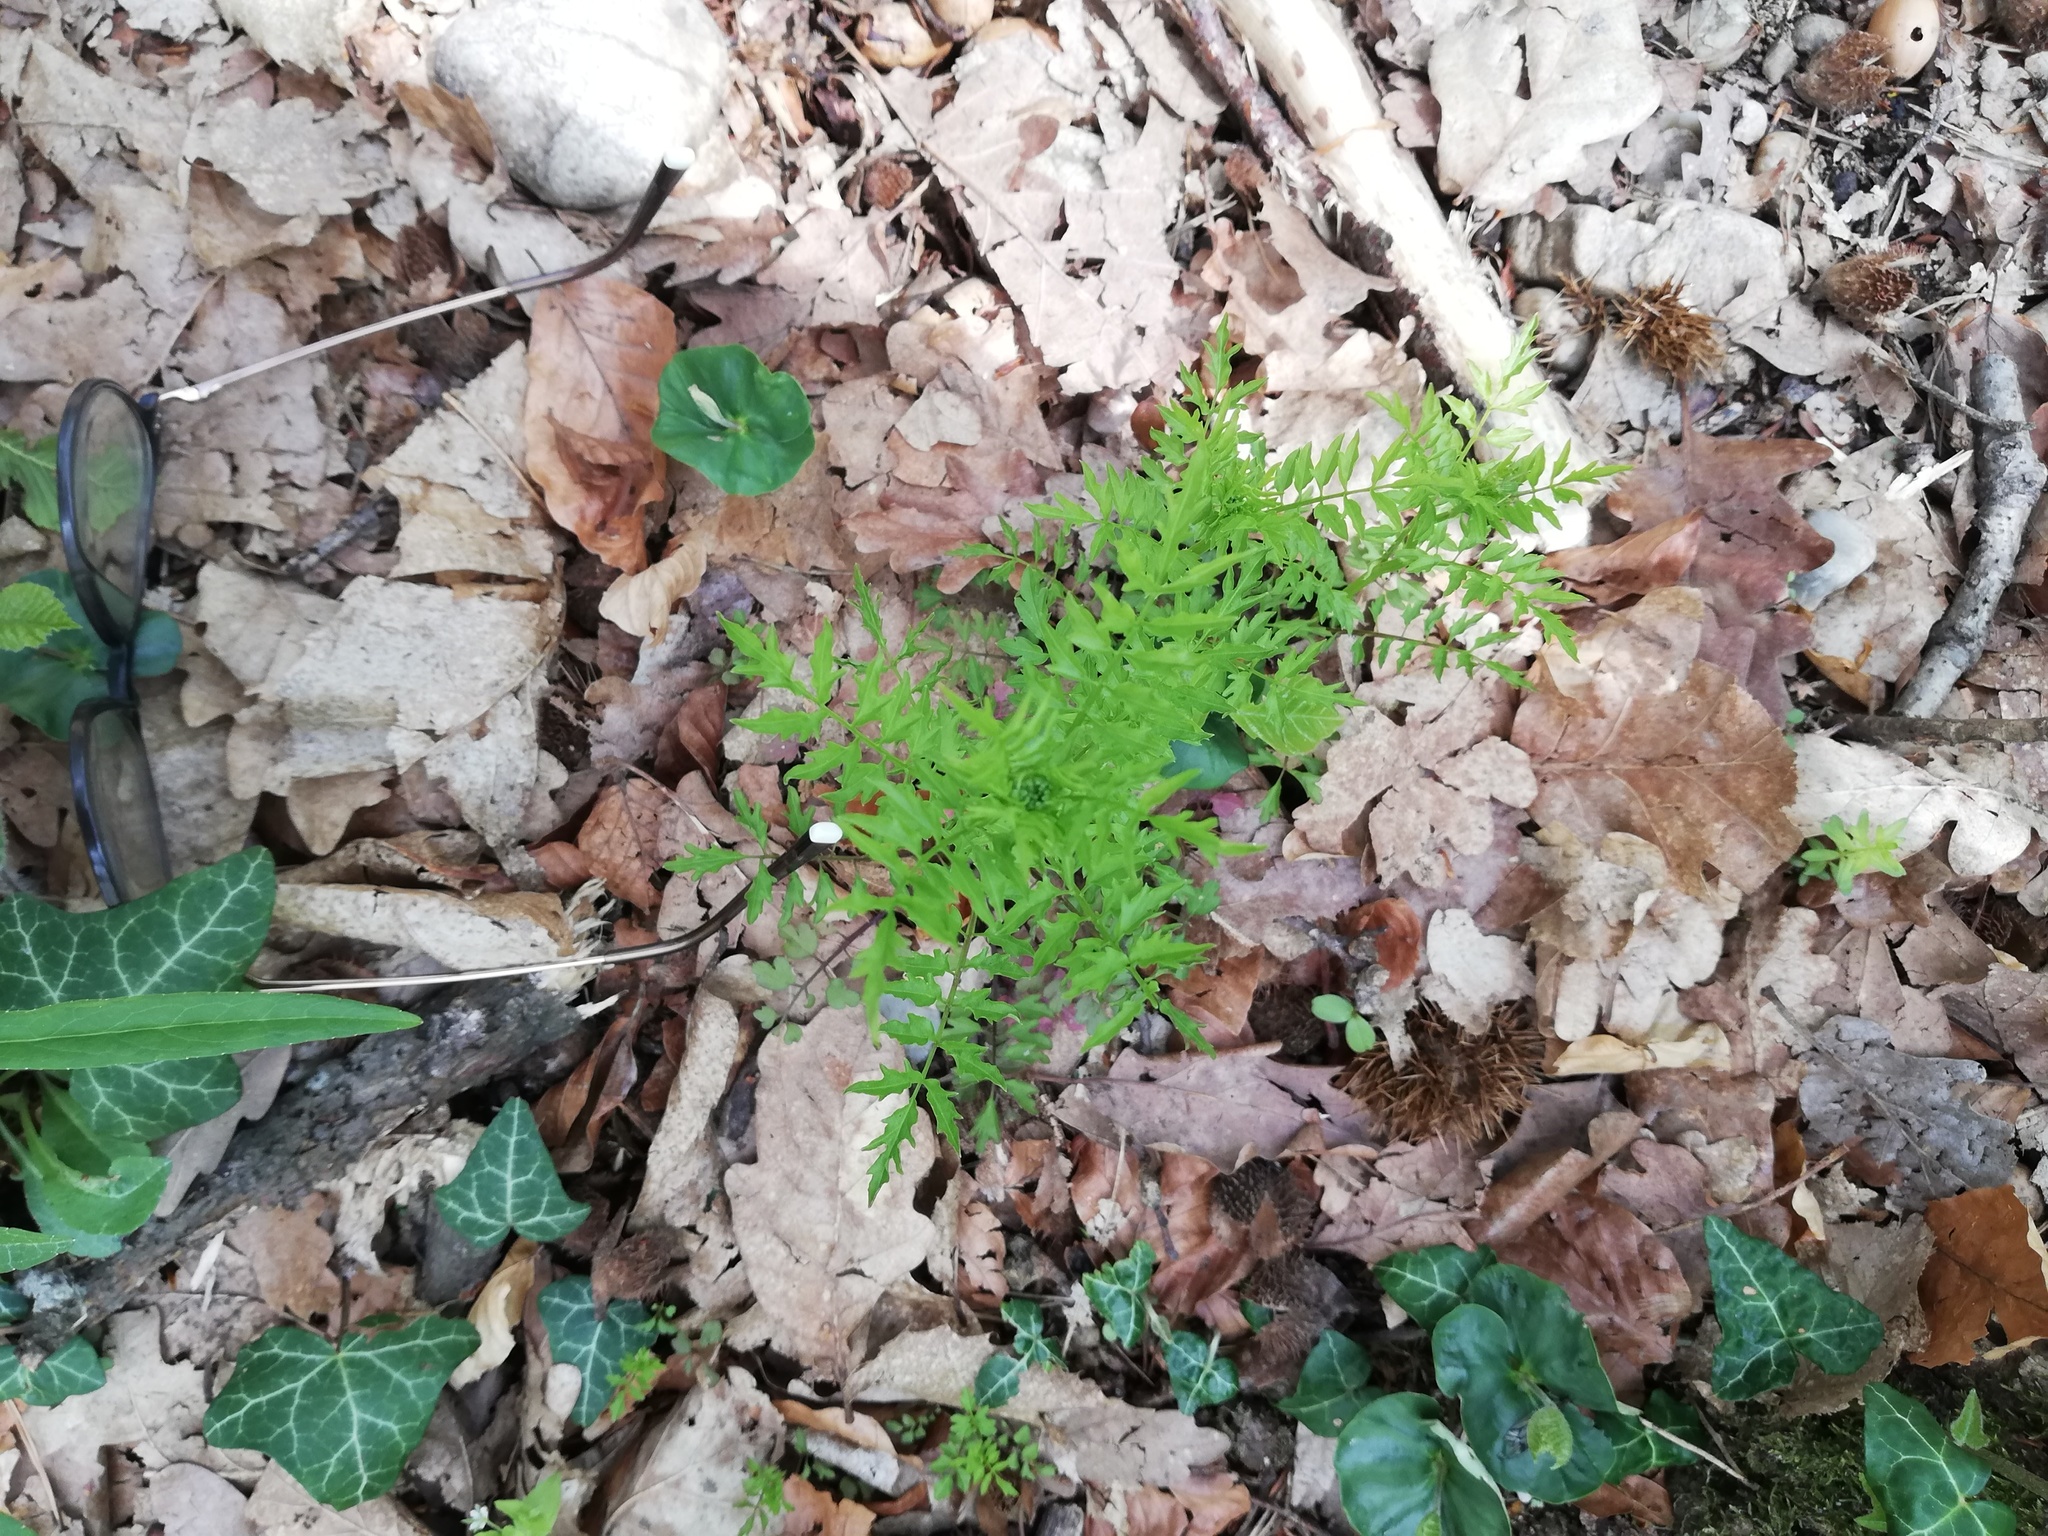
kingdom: Plantae
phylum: Tracheophyta
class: Magnoliopsida
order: Brassicales
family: Brassicaceae
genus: Cardamine
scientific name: Cardamine impatiens
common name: Narrow-leaved bitter-cress
